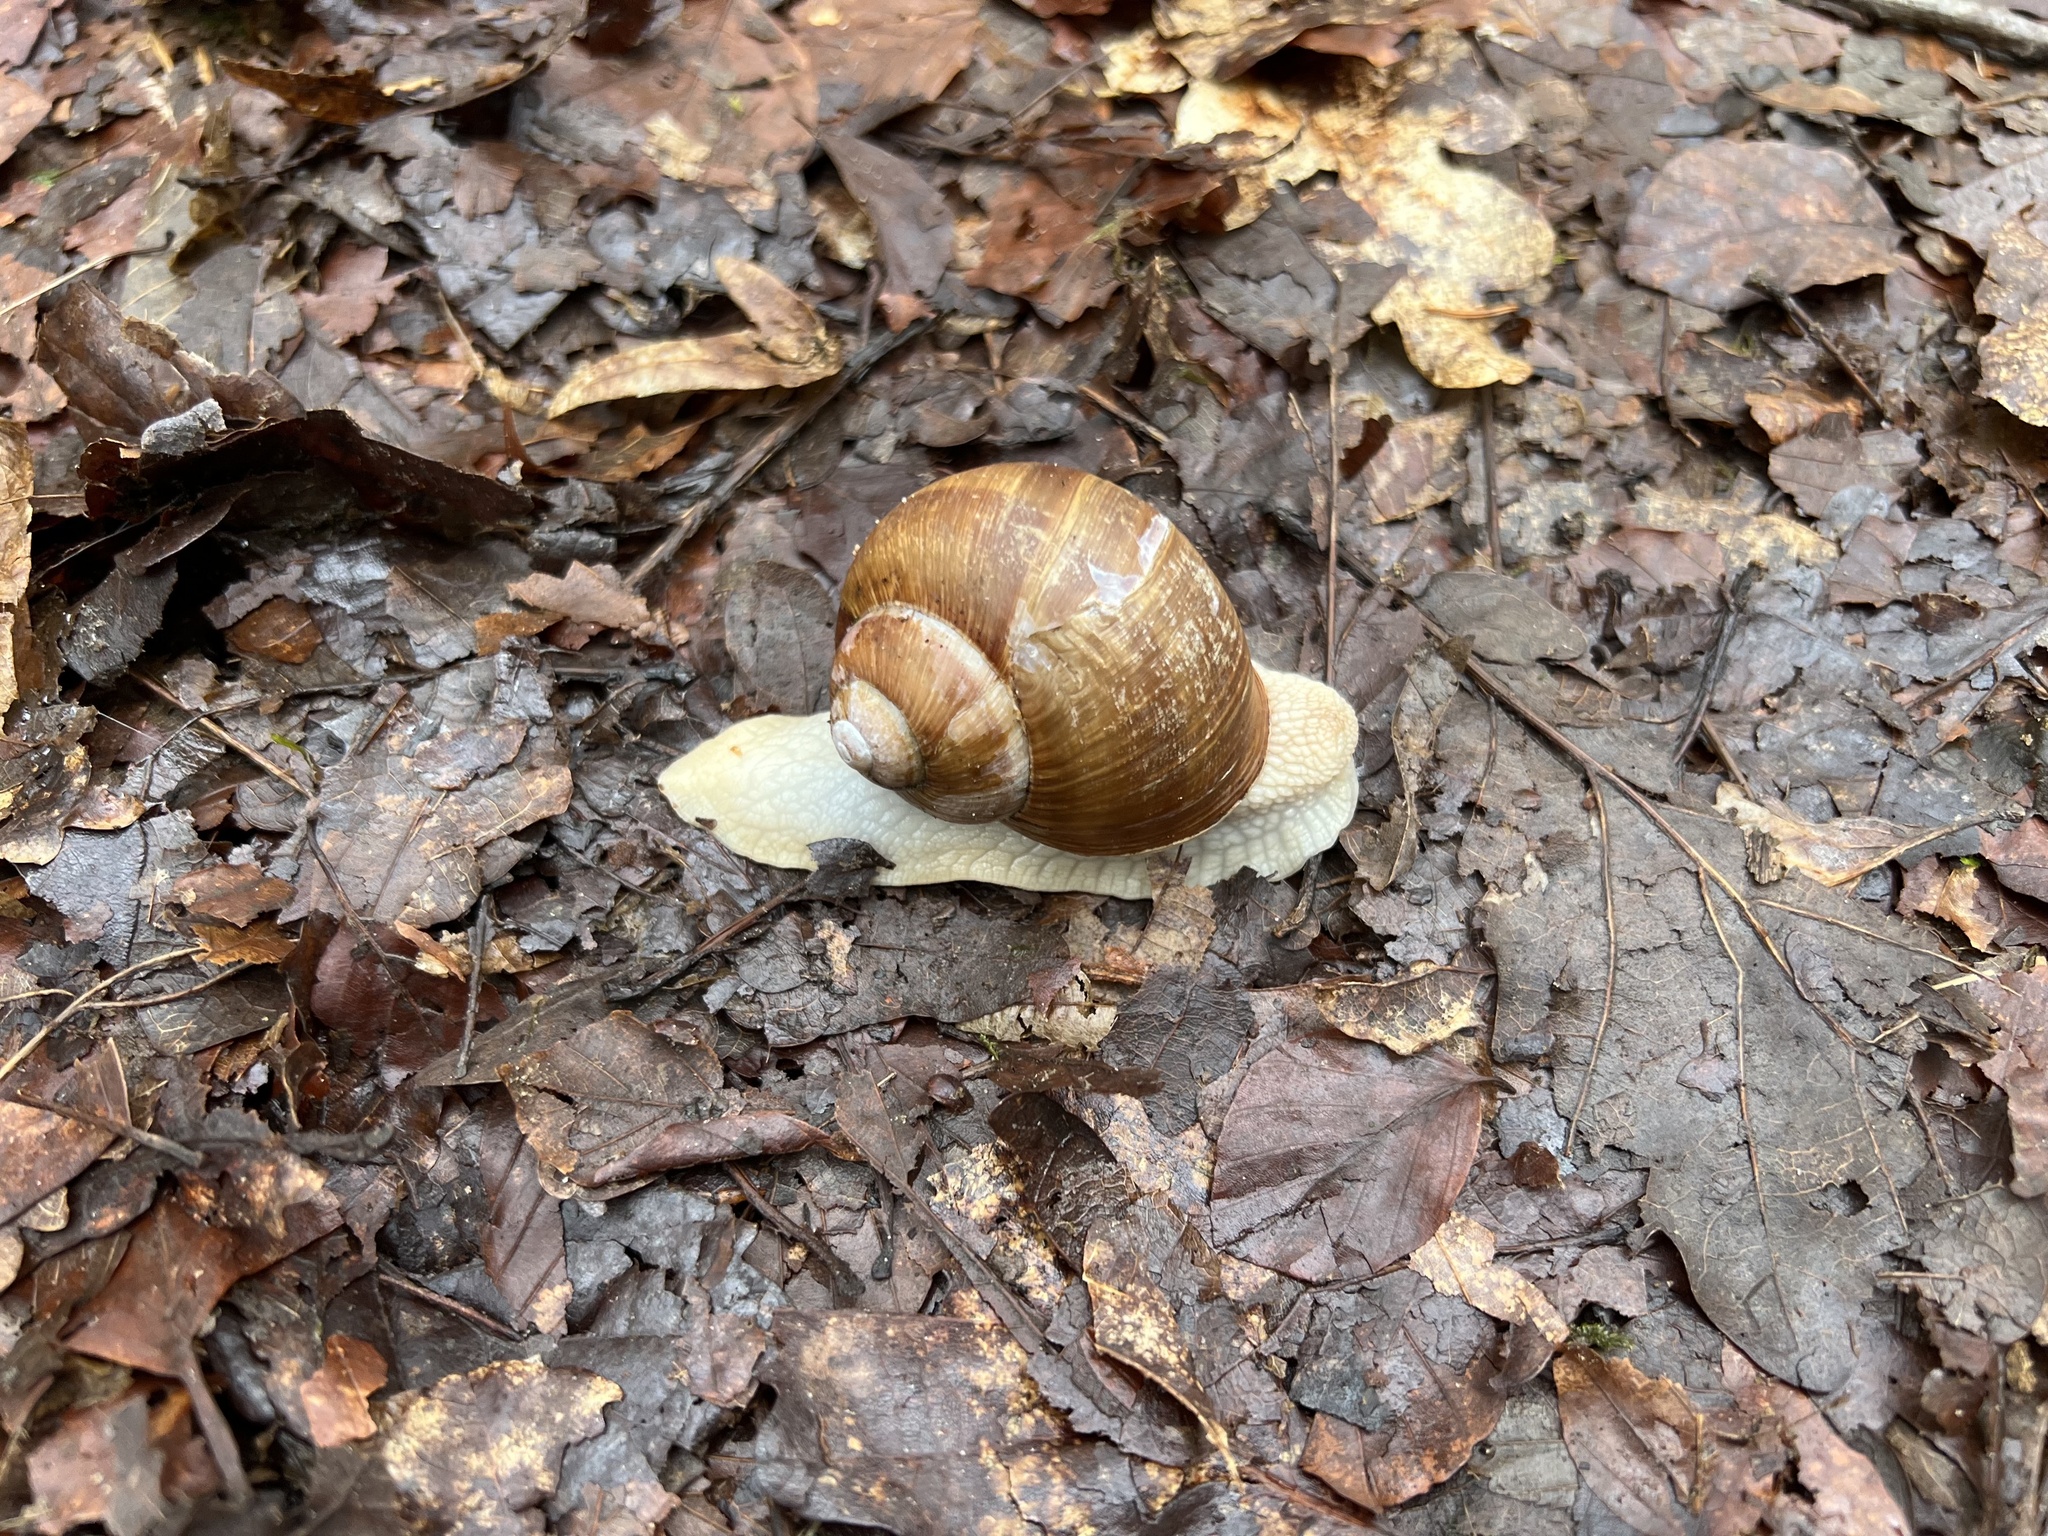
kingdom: Animalia
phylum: Mollusca
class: Gastropoda
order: Stylommatophora
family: Helicidae
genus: Helix
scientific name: Helix pomatia
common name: Roman snail
